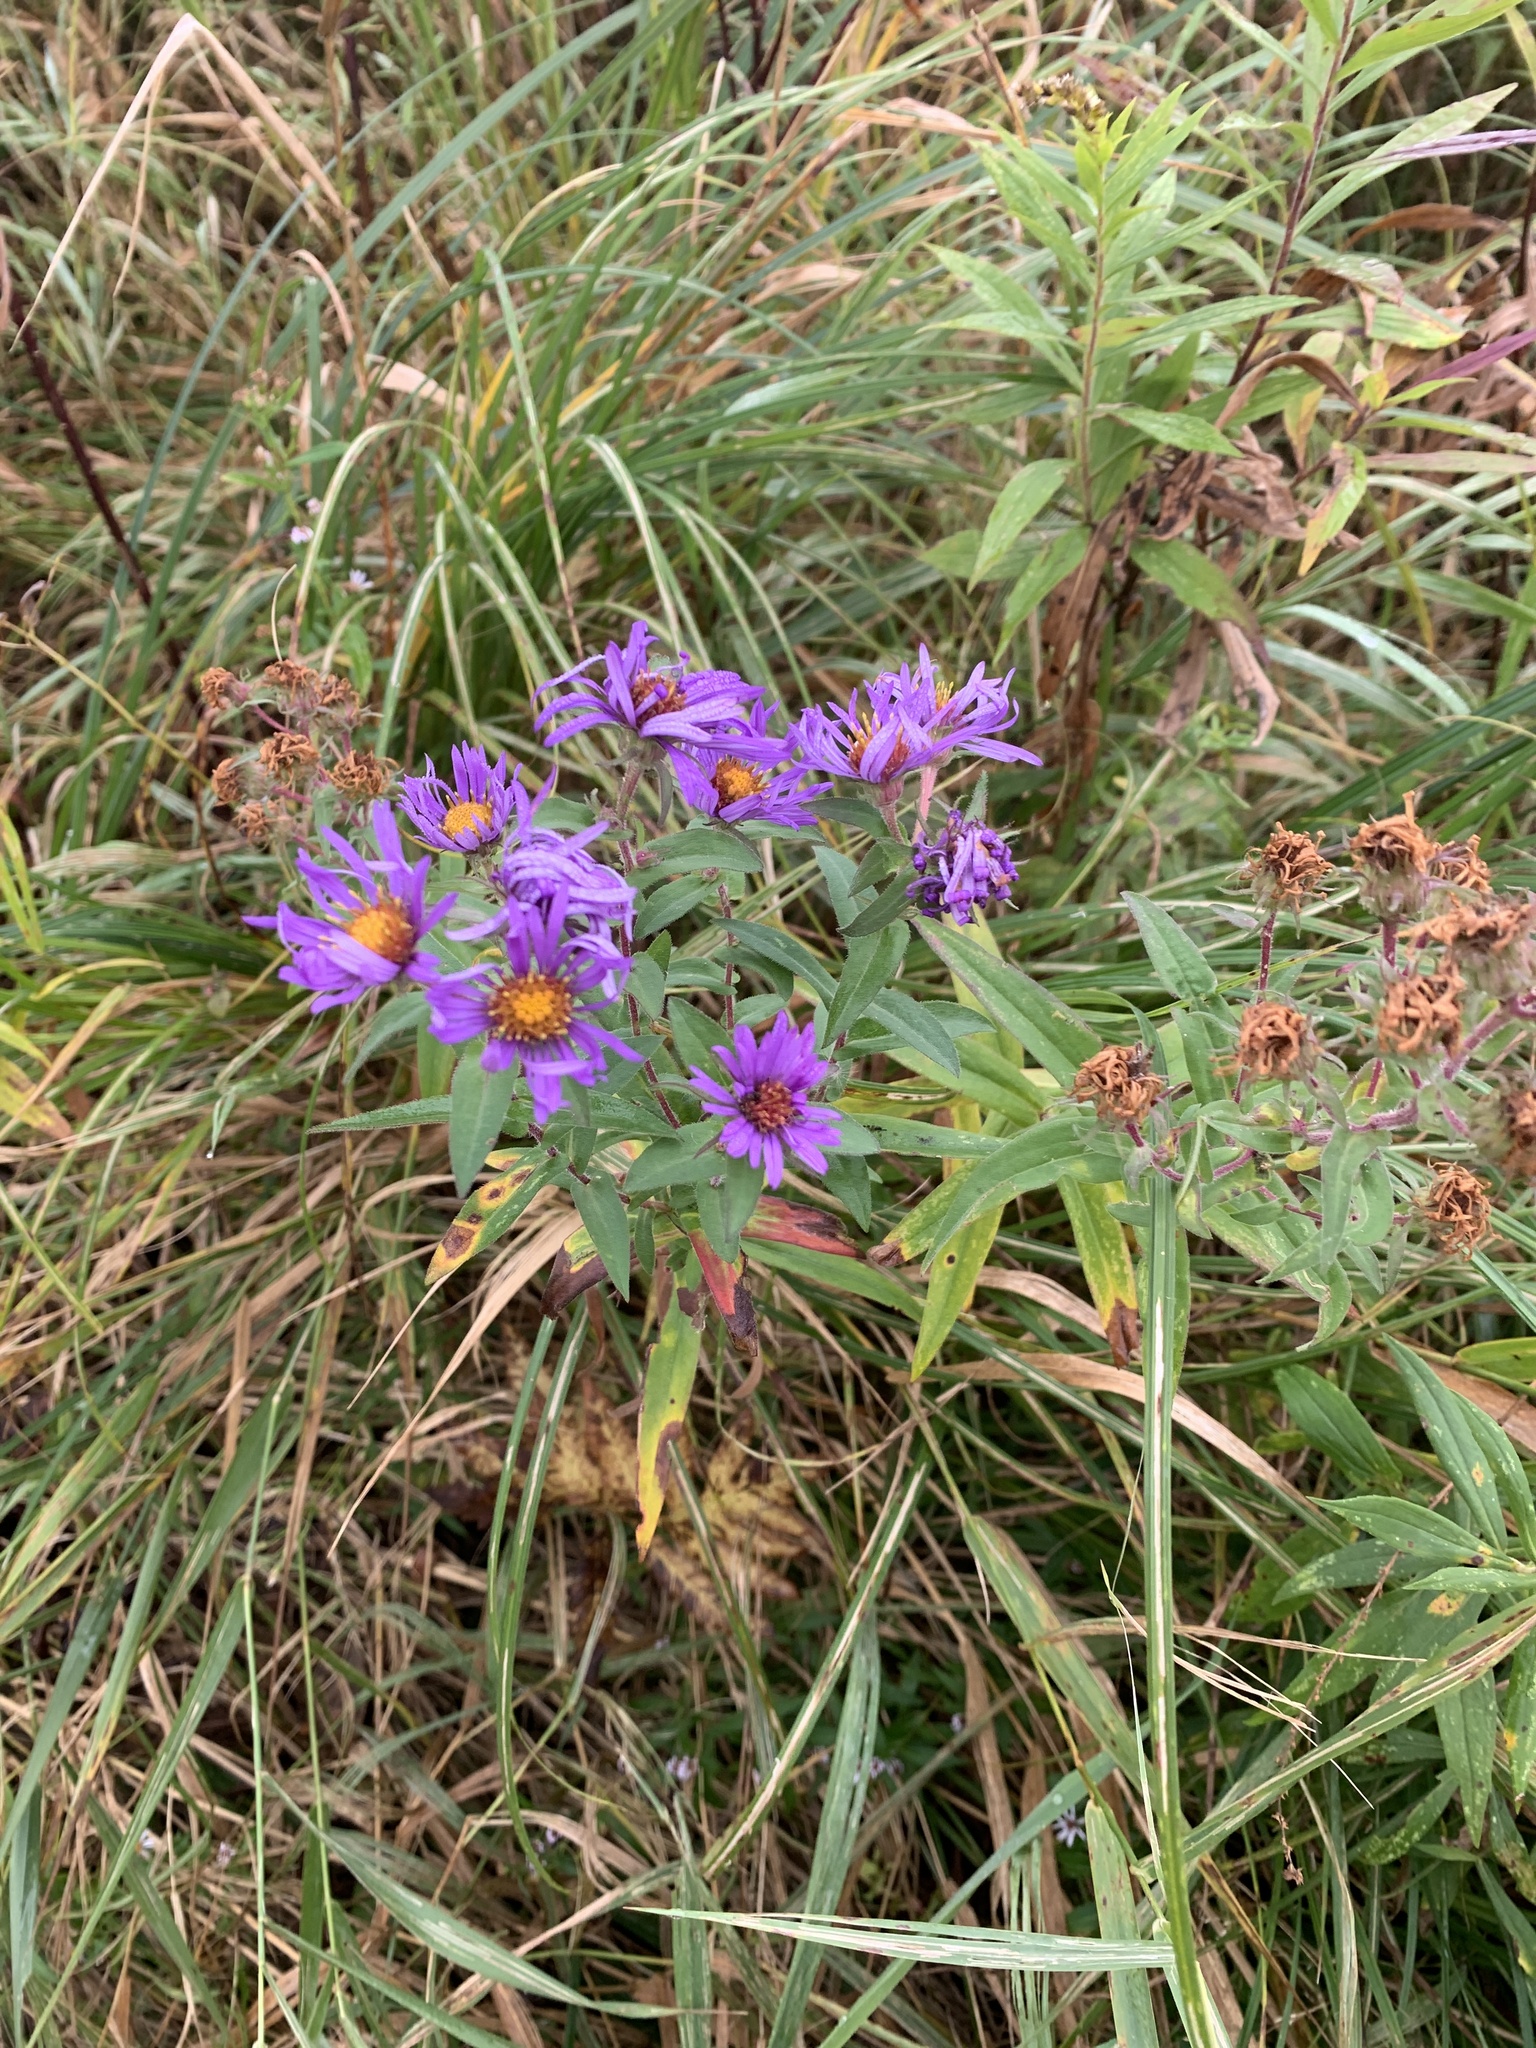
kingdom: Plantae
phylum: Tracheophyta
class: Magnoliopsida
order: Asterales
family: Asteraceae
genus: Symphyotrichum
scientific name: Symphyotrichum novae-angliae
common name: Michaelmas daisy
